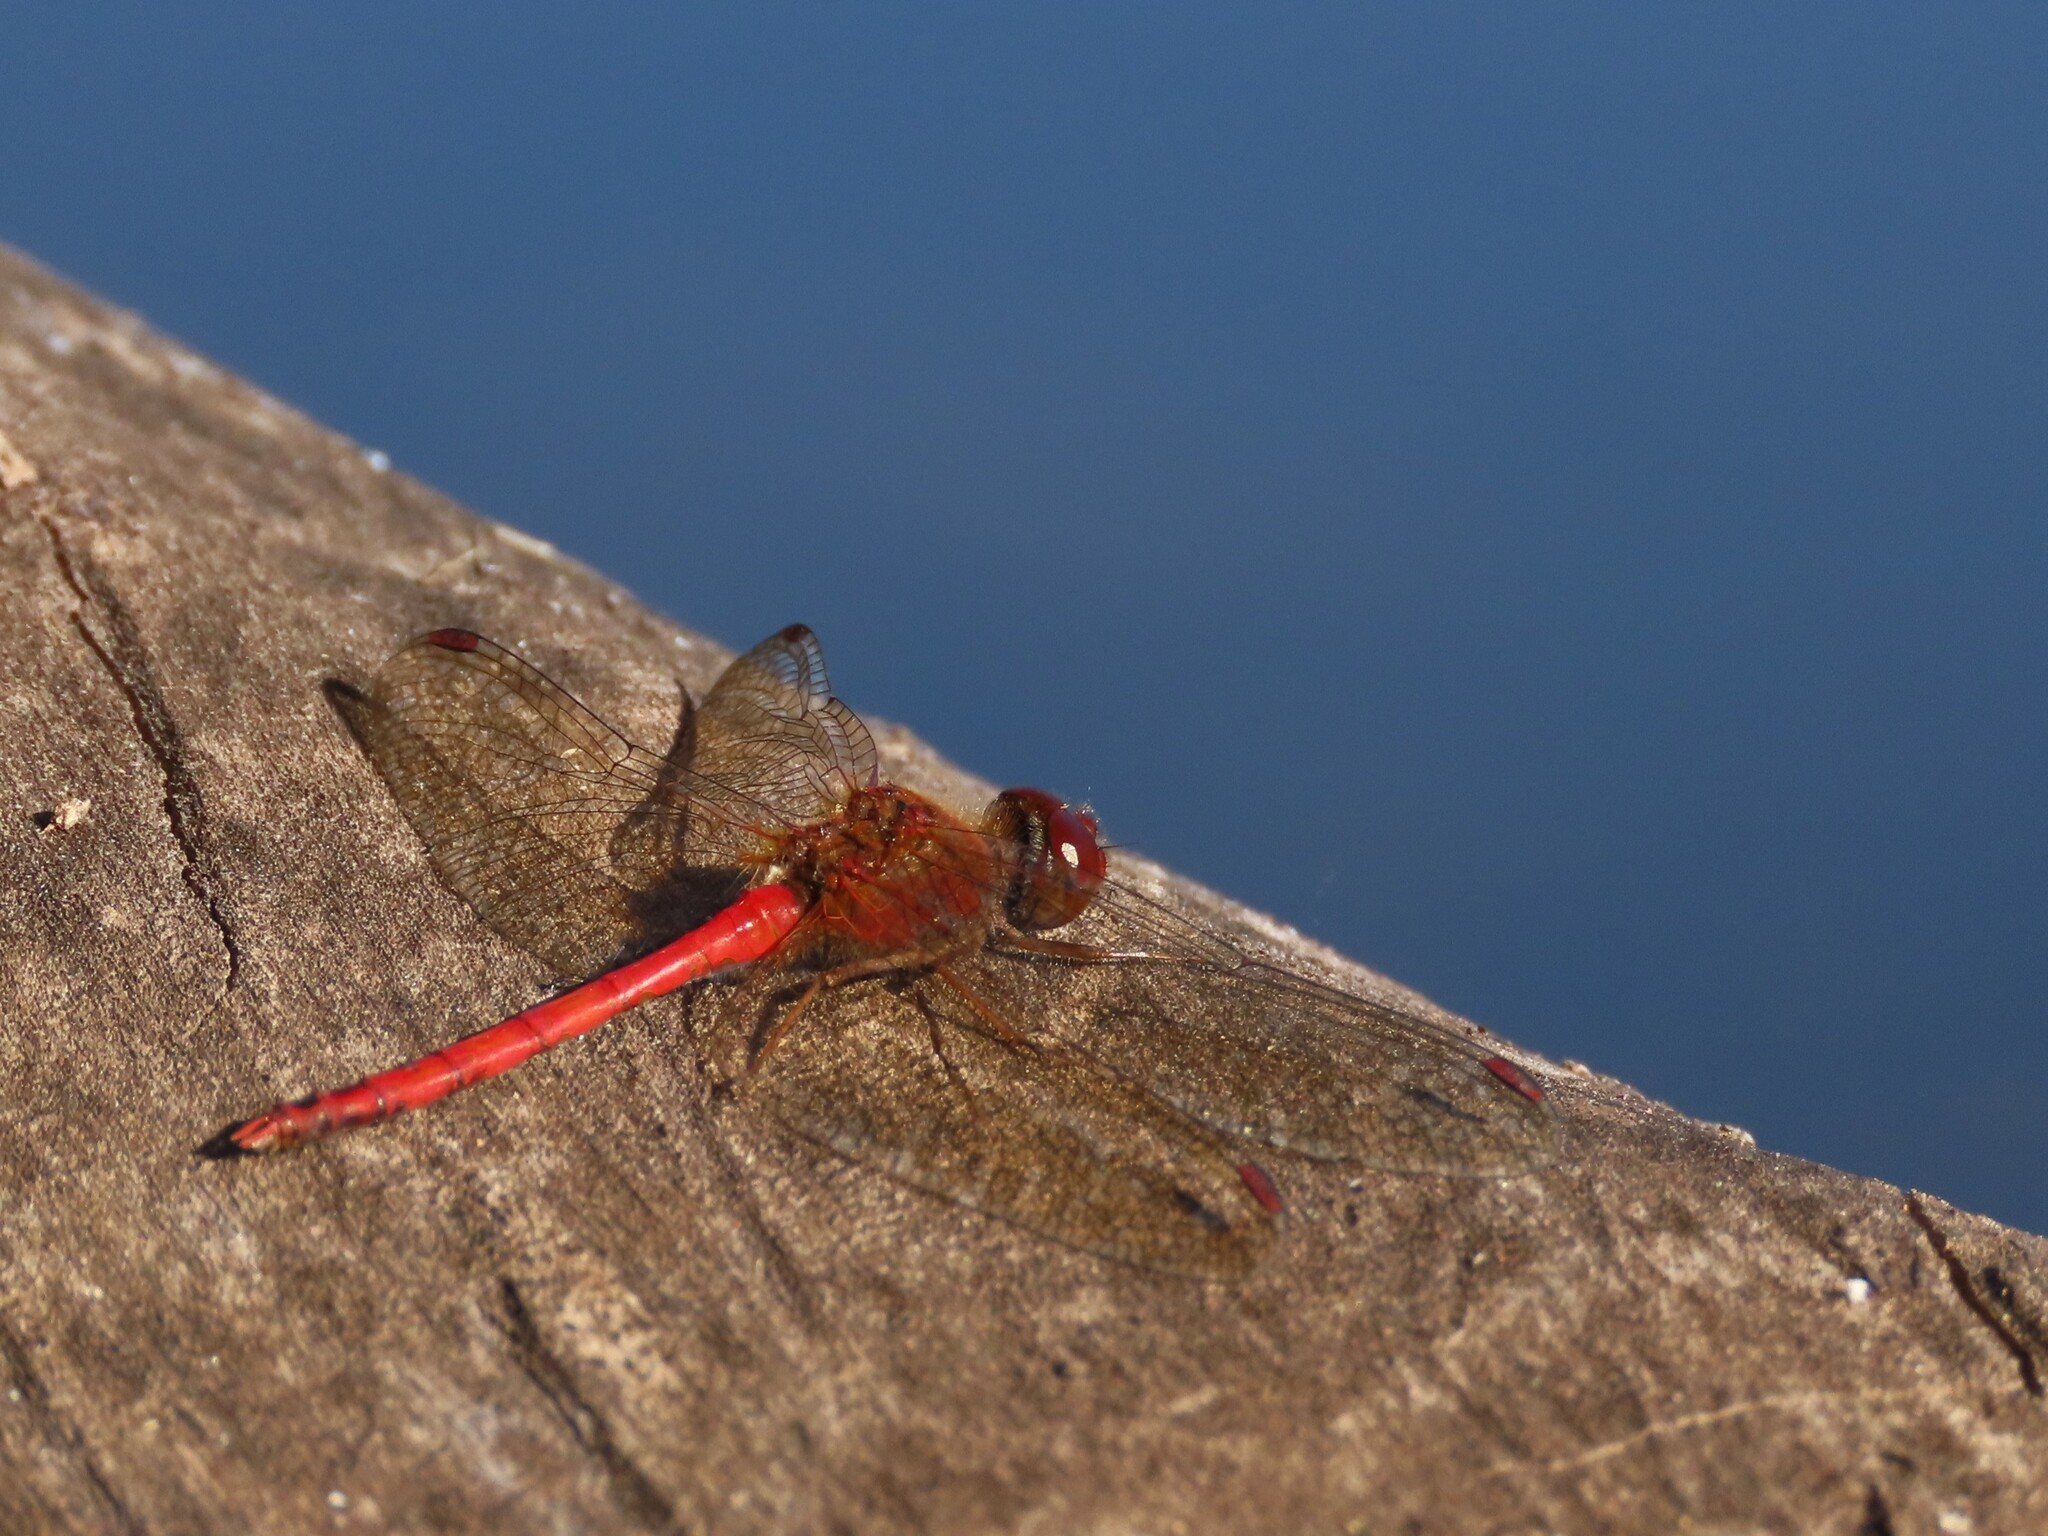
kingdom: Animalia
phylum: Arthropoda
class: Insecta
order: Odonata
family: Libellulidae
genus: Sympetrum
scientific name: Sympetrum vicinum
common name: Autumn meadowhawk
